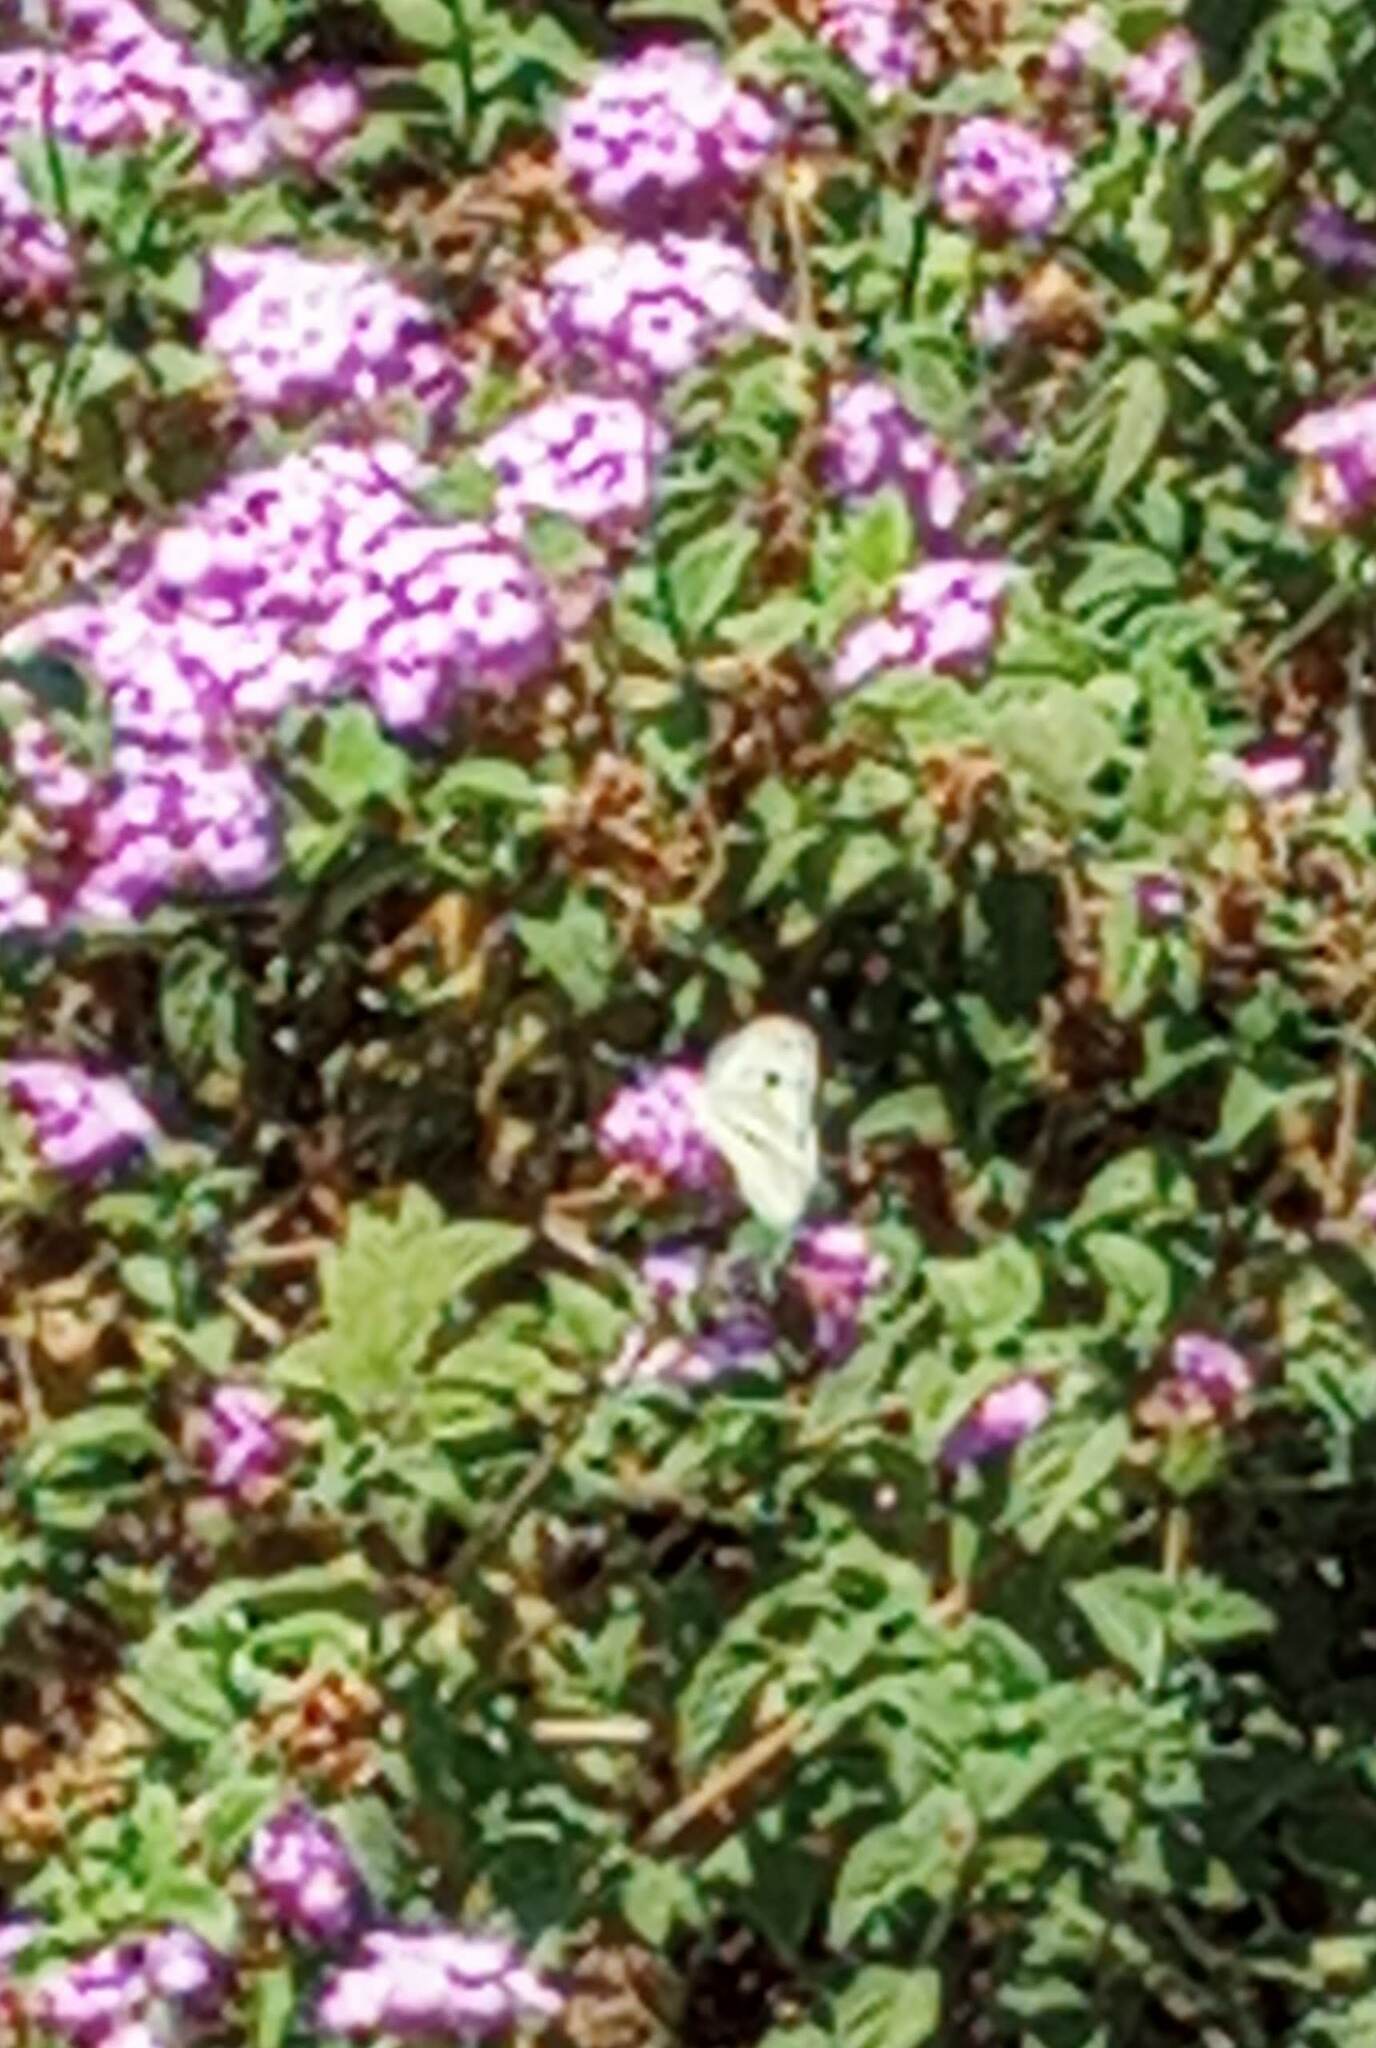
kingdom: Animalia
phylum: Arthropoda
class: Insecta
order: Lepidoptera
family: Pieridae
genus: Pieris
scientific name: Pieris rapae
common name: Small white
